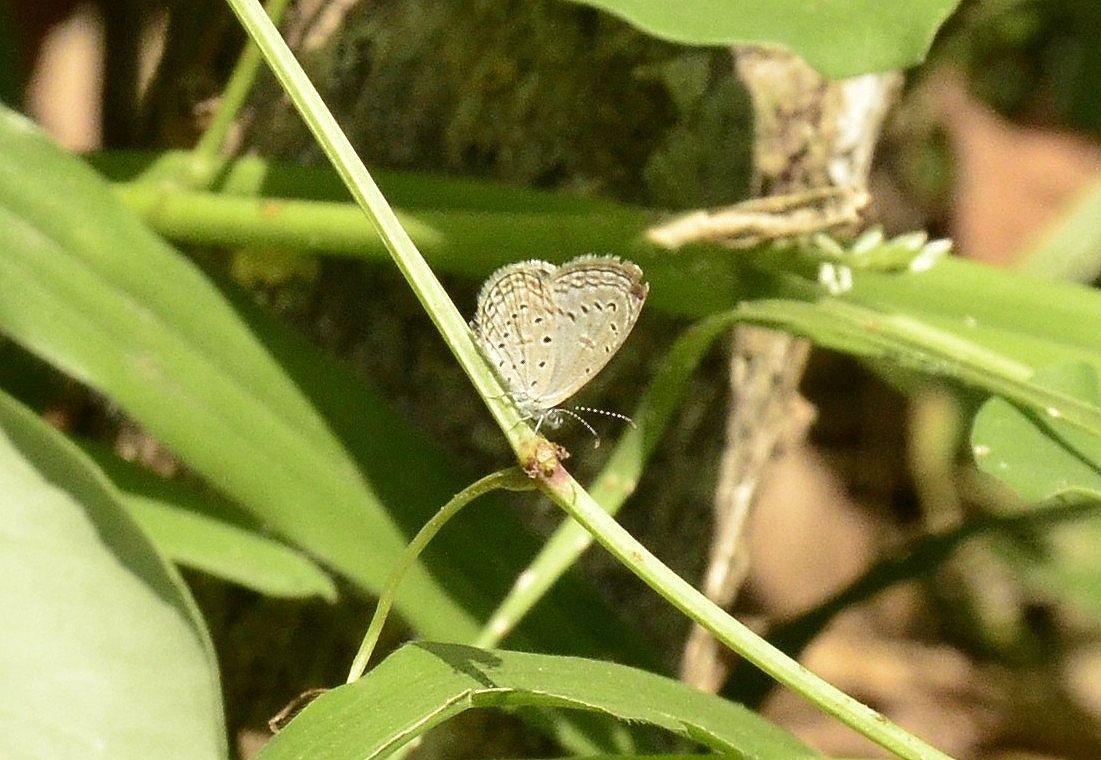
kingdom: Animalia
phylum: Arthropoda
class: Insecta
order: Lepidoptera
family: Lycaenidae
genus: Zizula
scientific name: Zizula hylax
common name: Gaika blue
